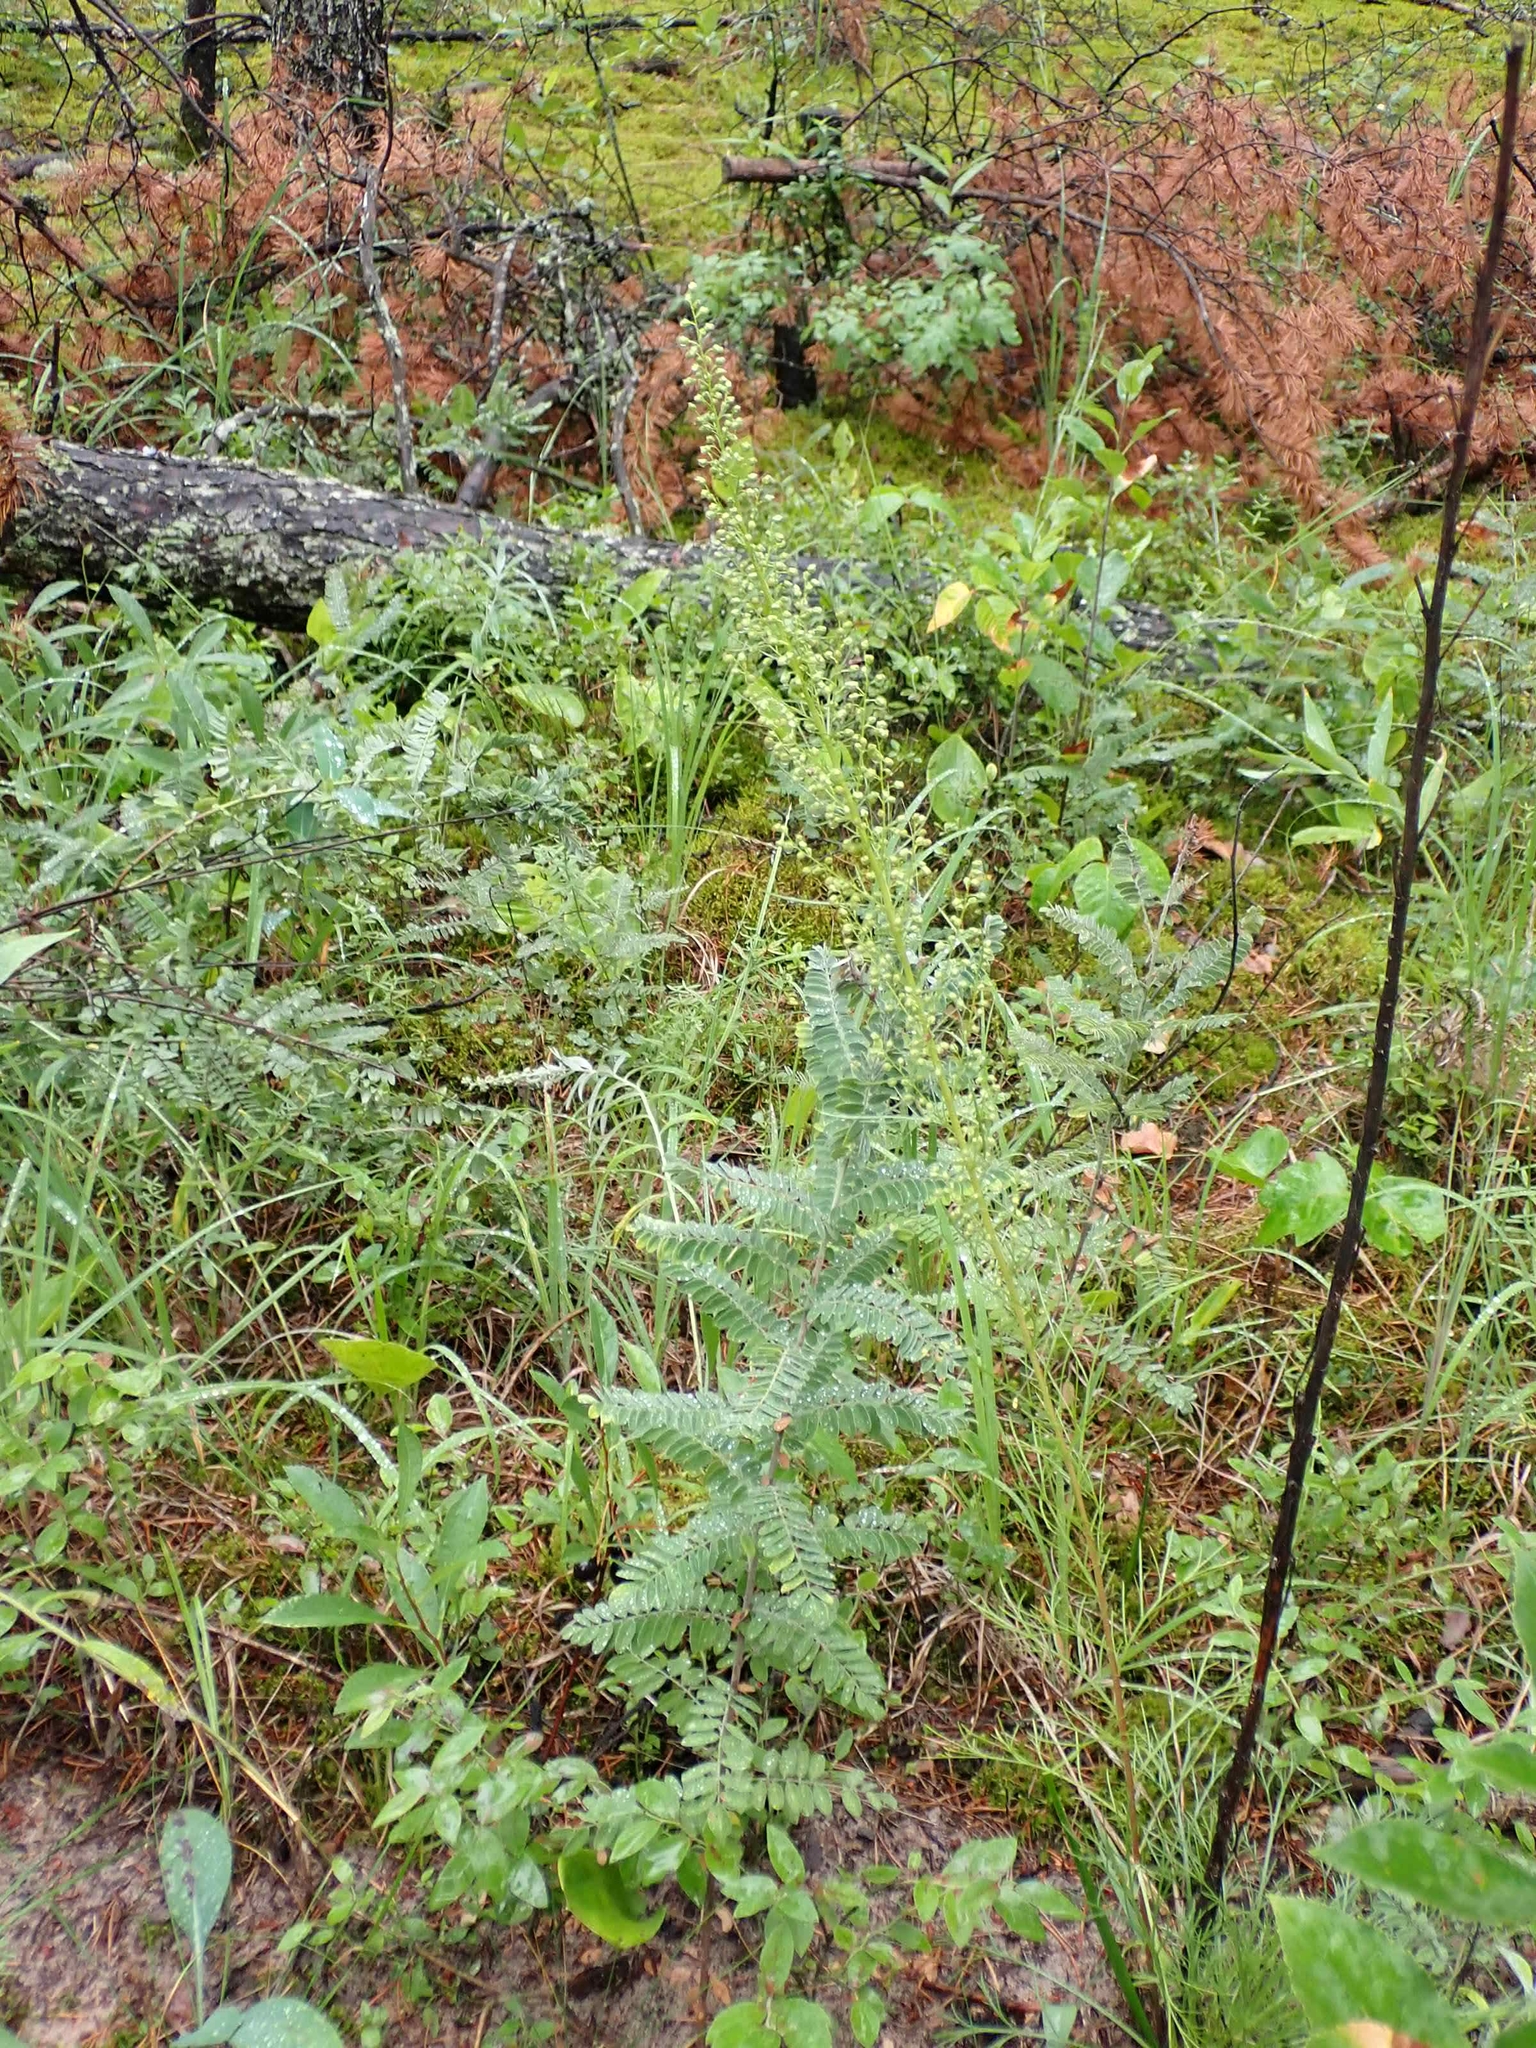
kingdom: Plantae
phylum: Tracheophyta
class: Magnoliopsida
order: Asterales
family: Asteraceae
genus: Artemisia
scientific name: Artemisia campestris
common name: Field wormwood
